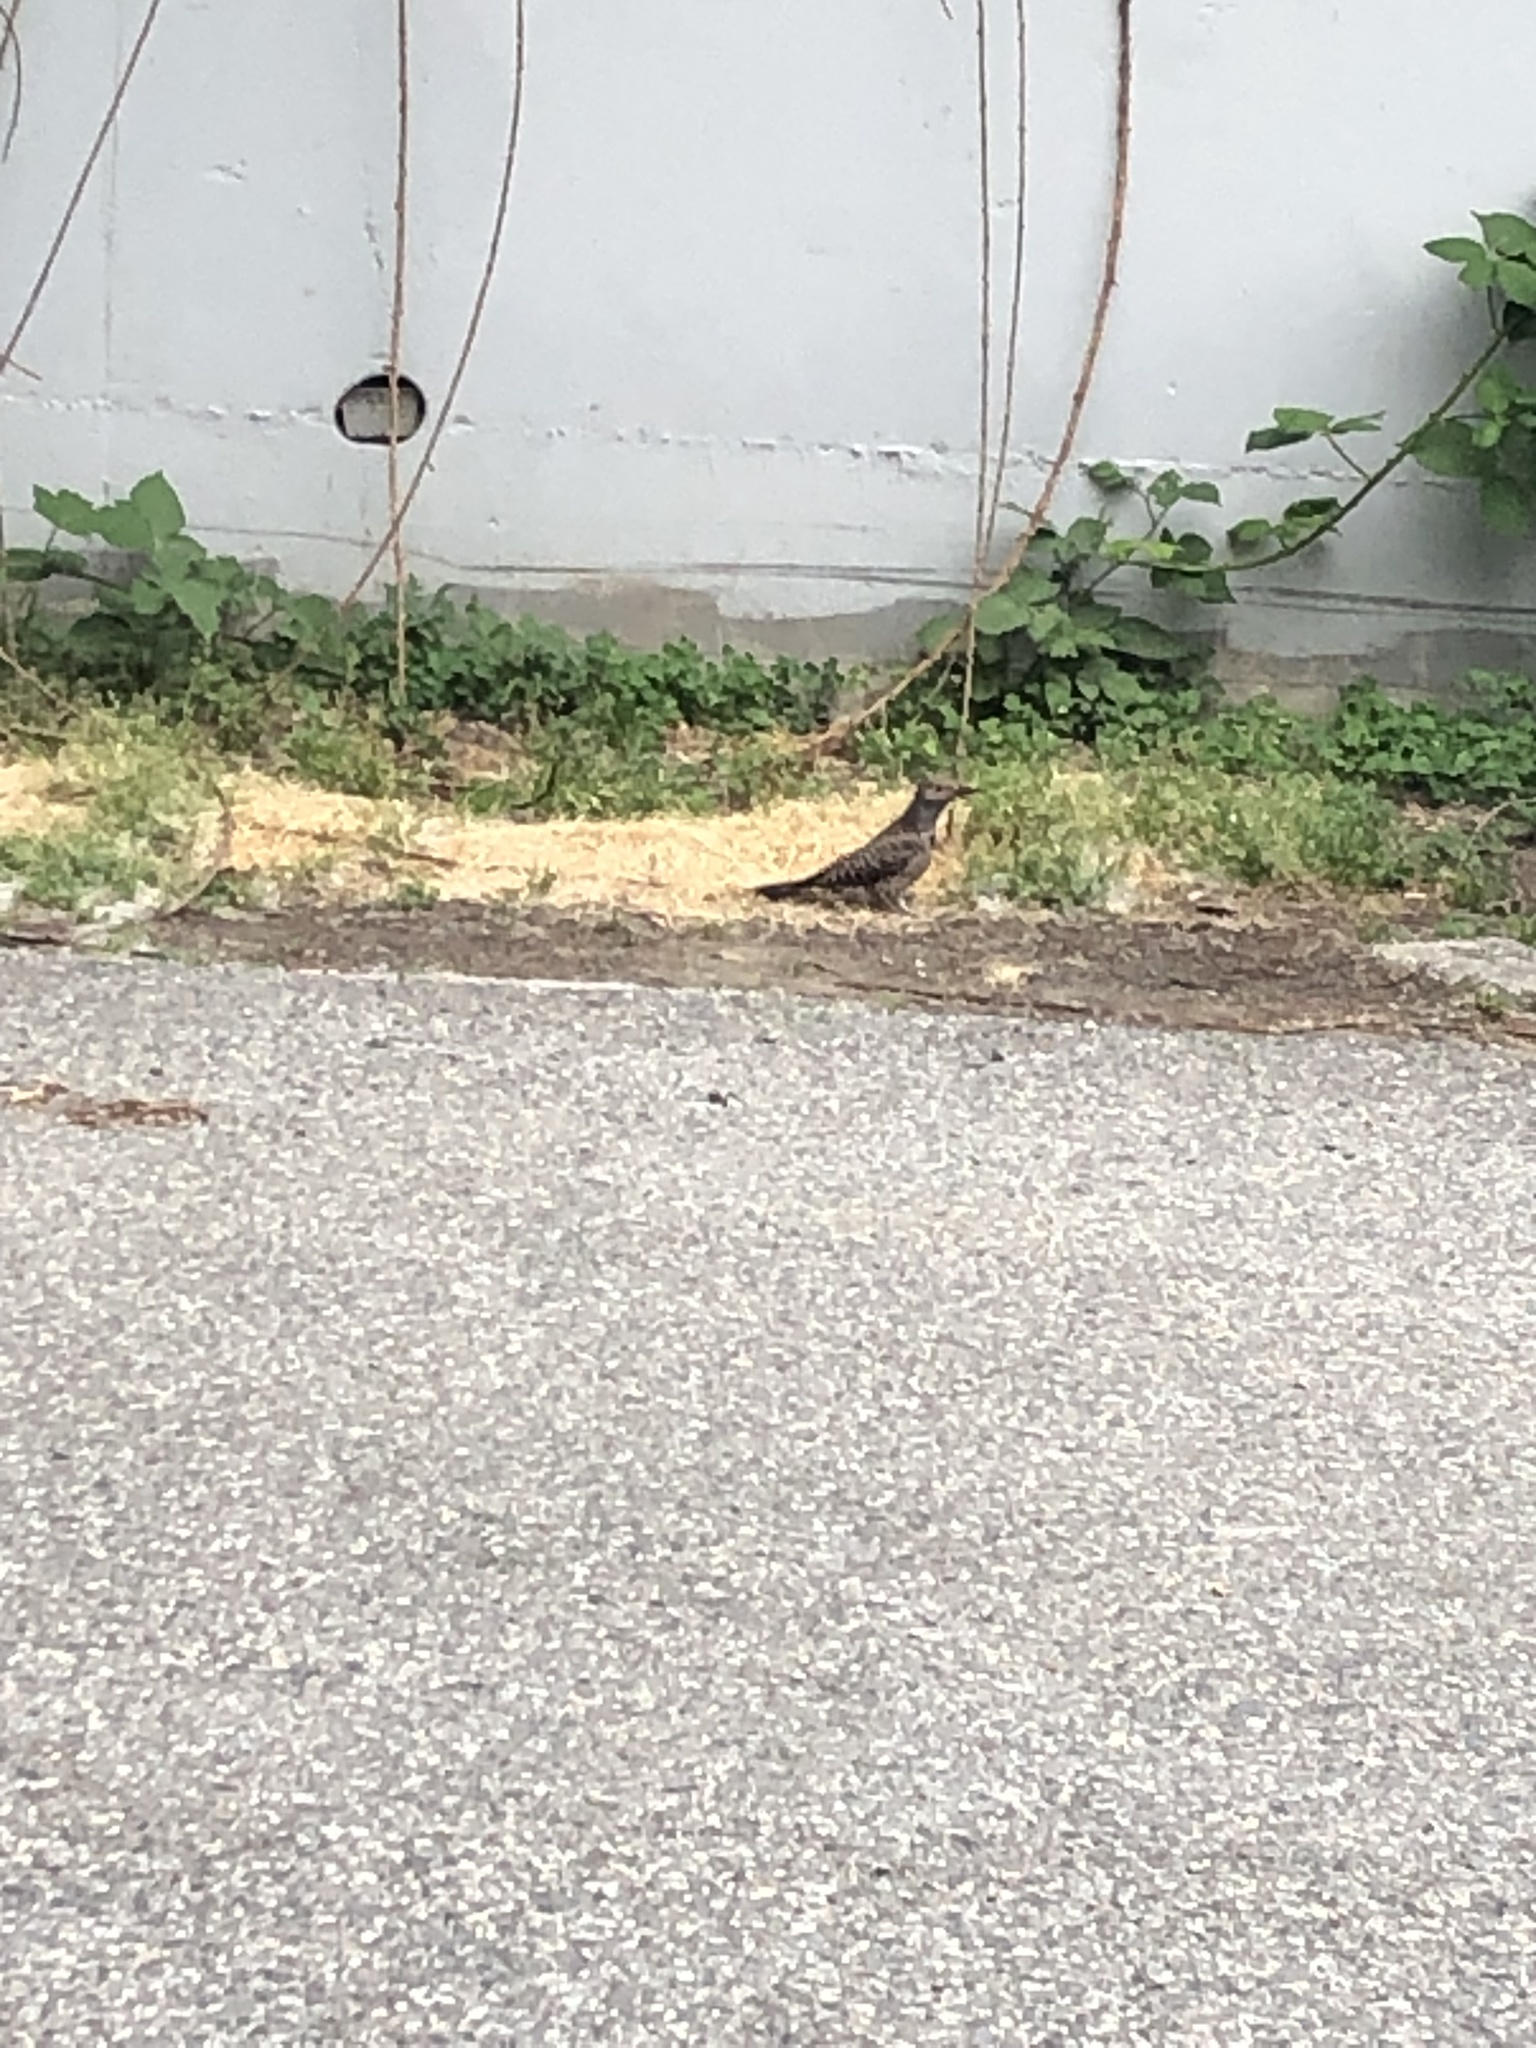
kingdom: Animalia
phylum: Chordata
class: Aves
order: Piciformes
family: Picidae
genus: Colaptes
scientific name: Colaptes auratus
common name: Northern flicker
